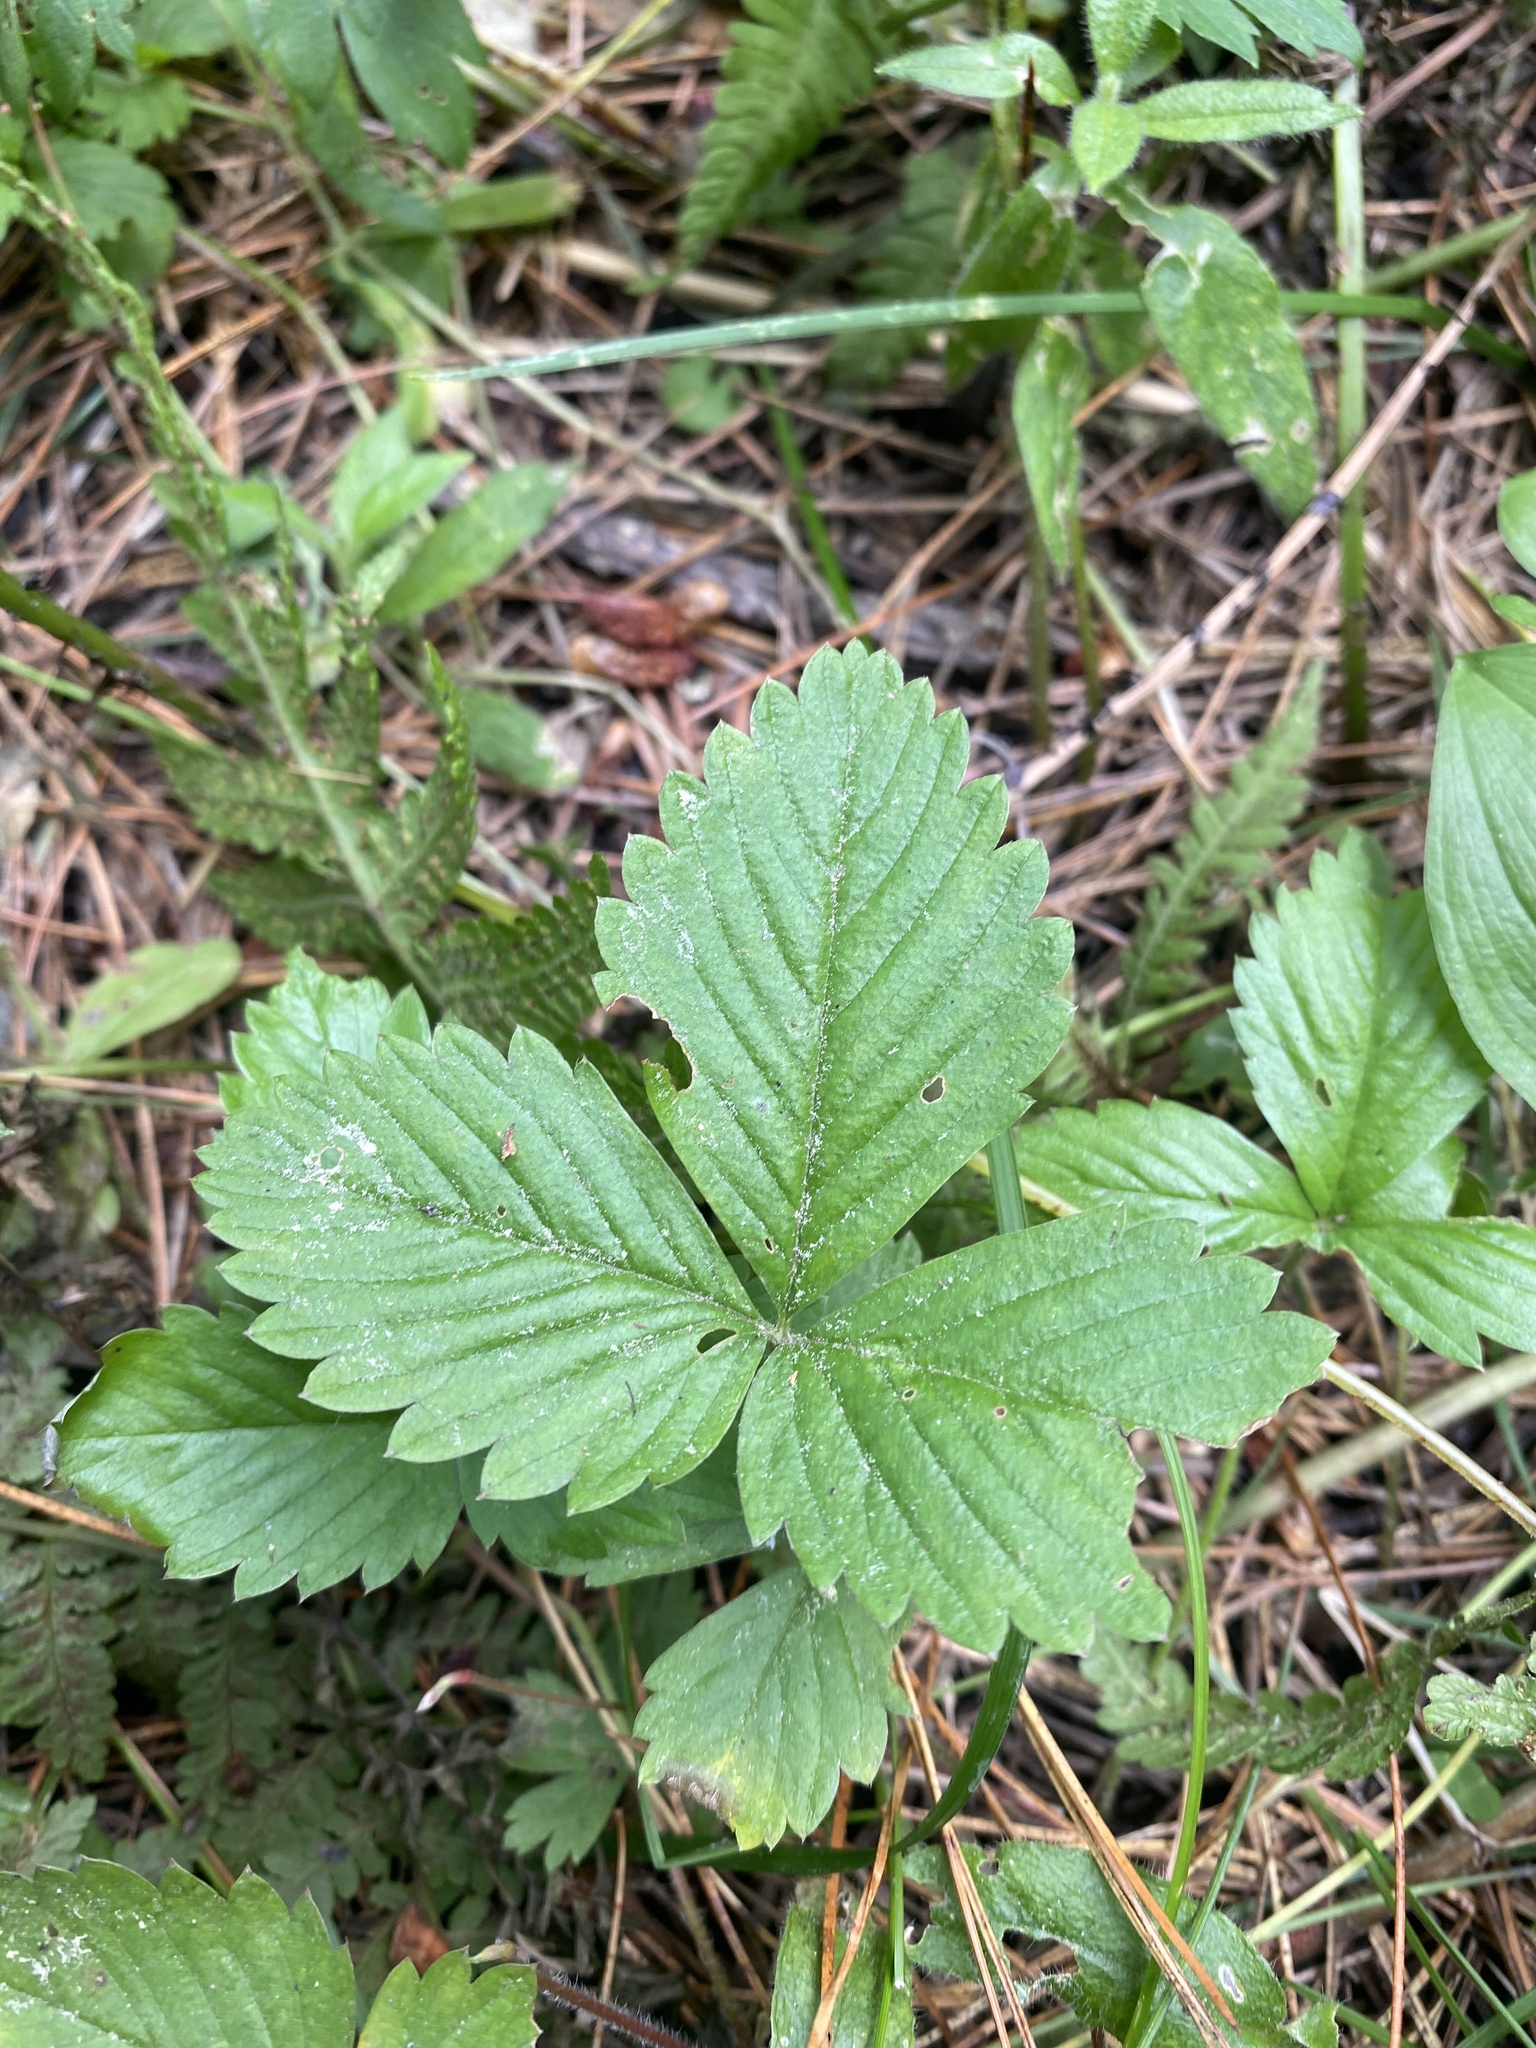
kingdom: Plantae
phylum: Tracheophyta
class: Magnoliopsida
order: Rosales
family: Rosaceae
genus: Fragaria
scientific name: Fragaria vesca
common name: Wild strawberry
